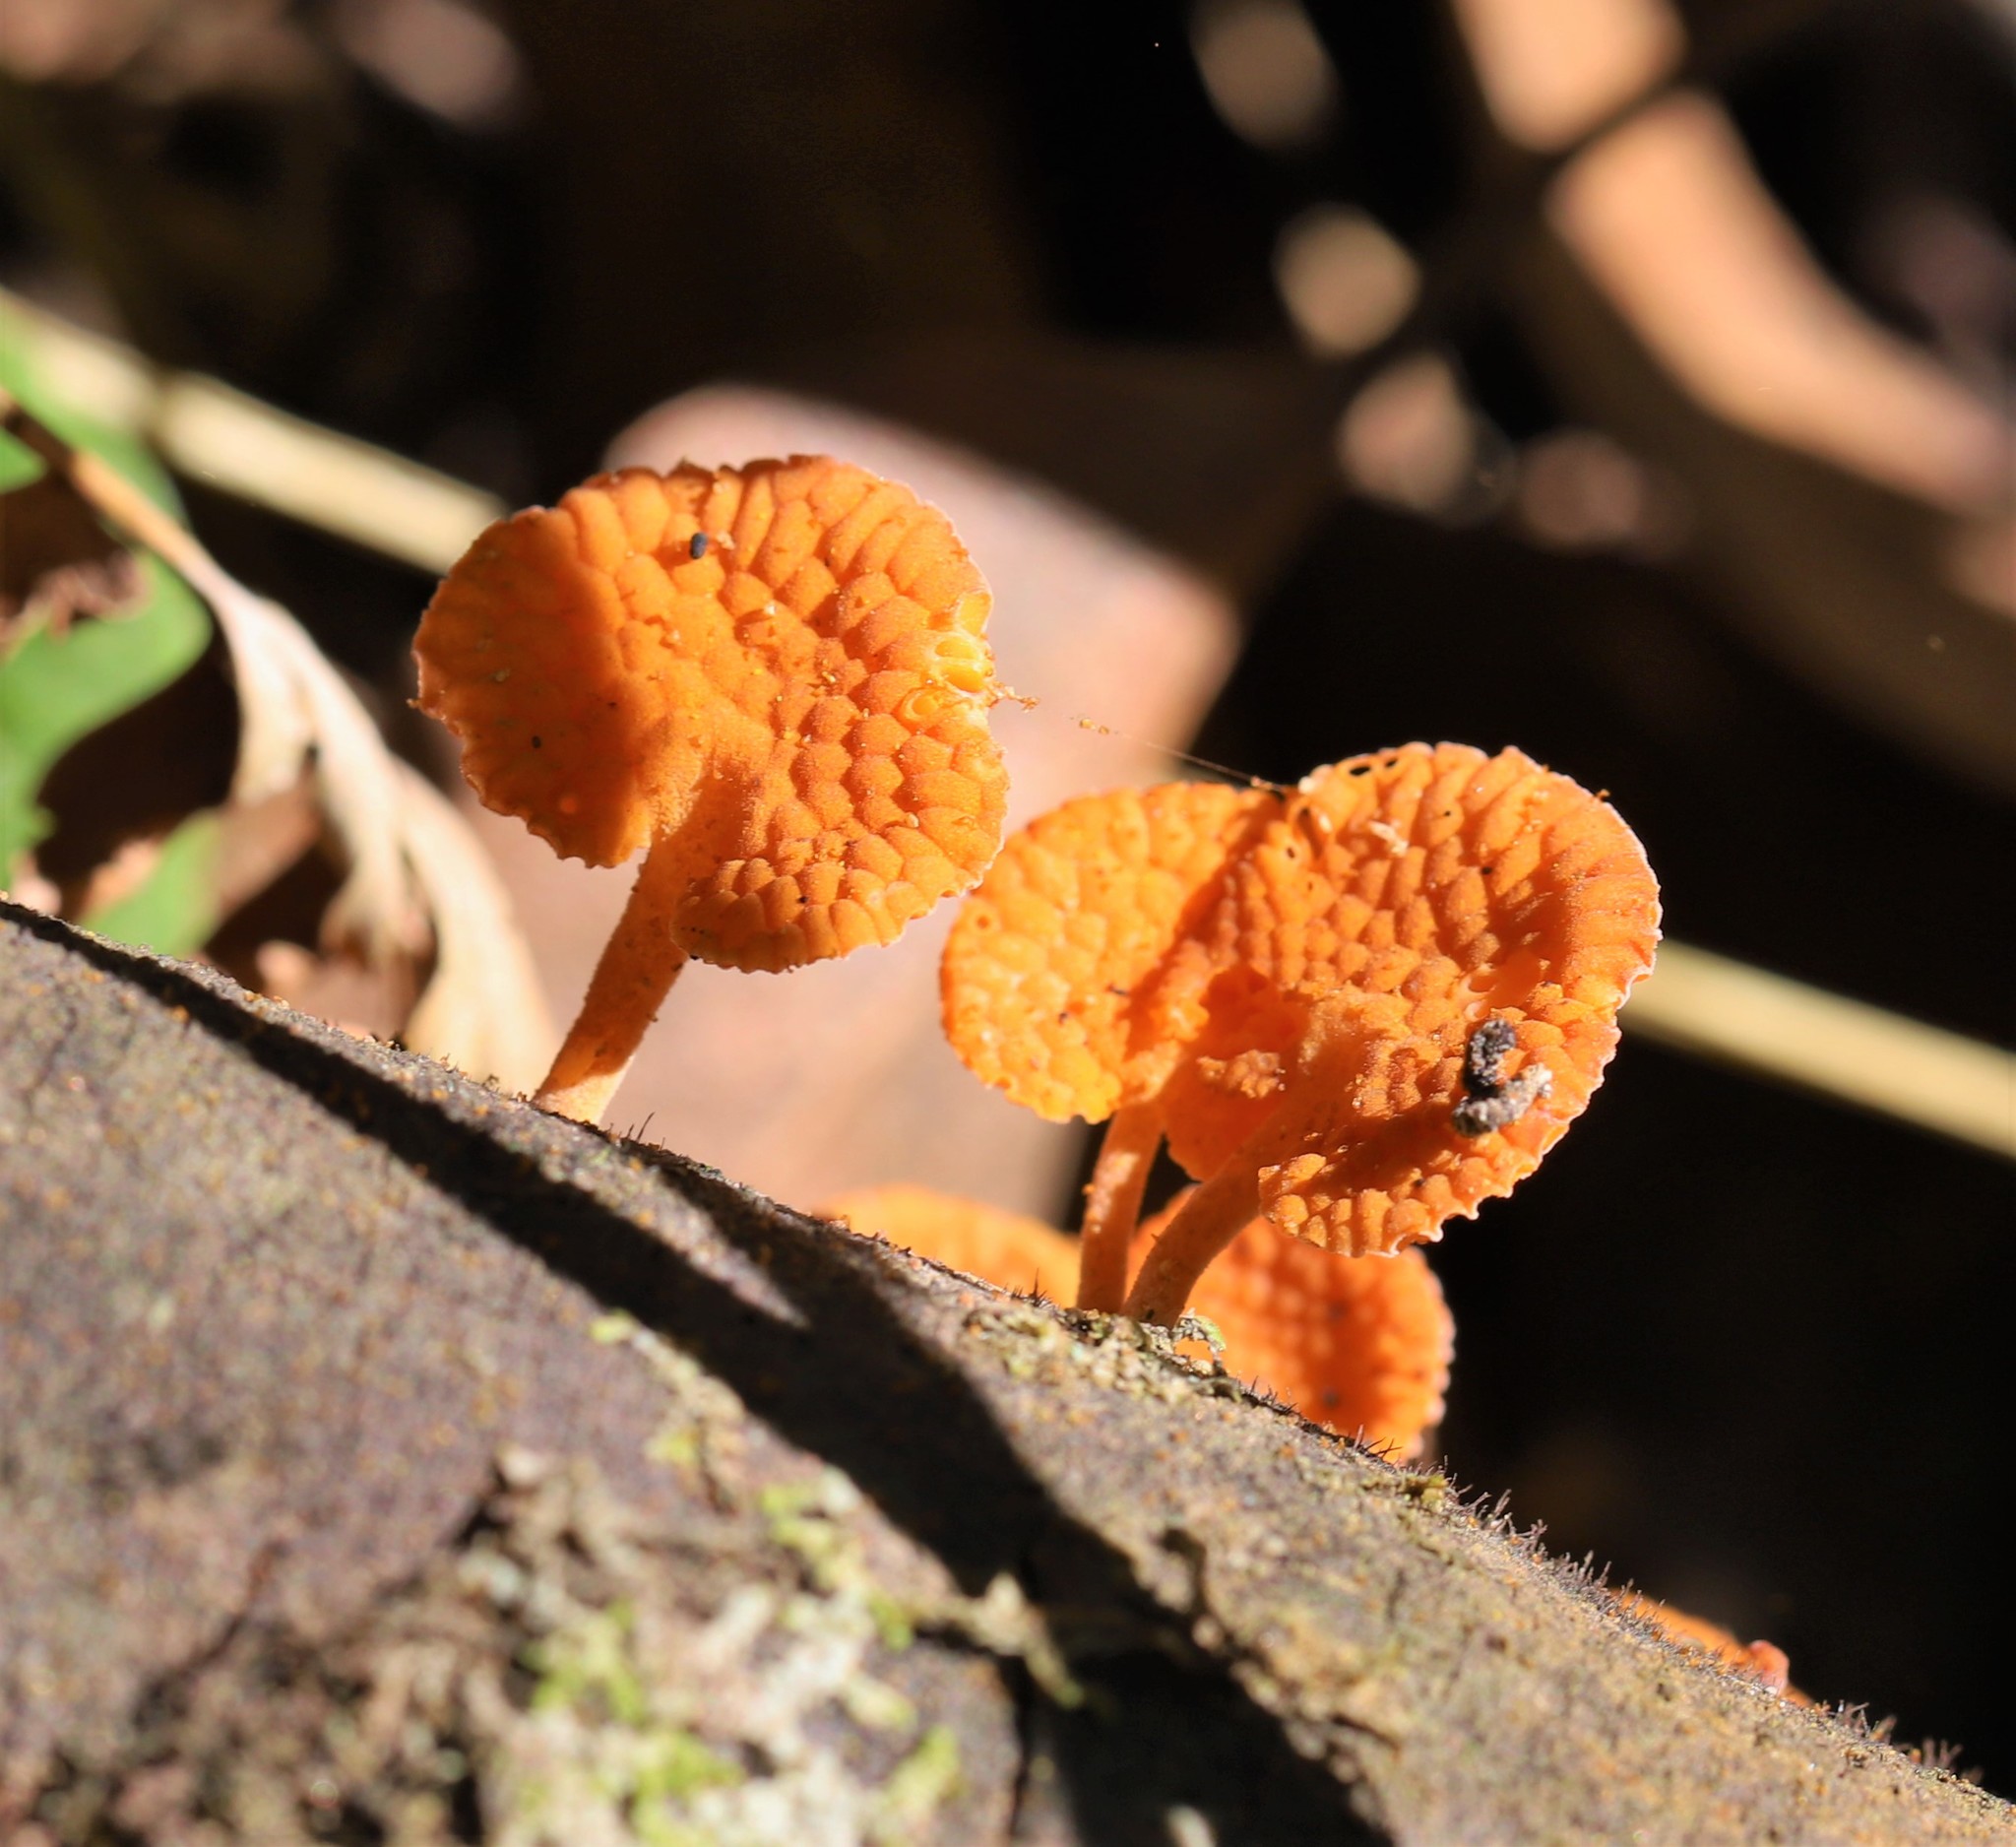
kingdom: Fungi
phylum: Basidiomycota
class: Agaricomycetes
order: Agaricales
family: Mycenaceae
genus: Favolaschia
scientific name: Favolaschia claudopus
